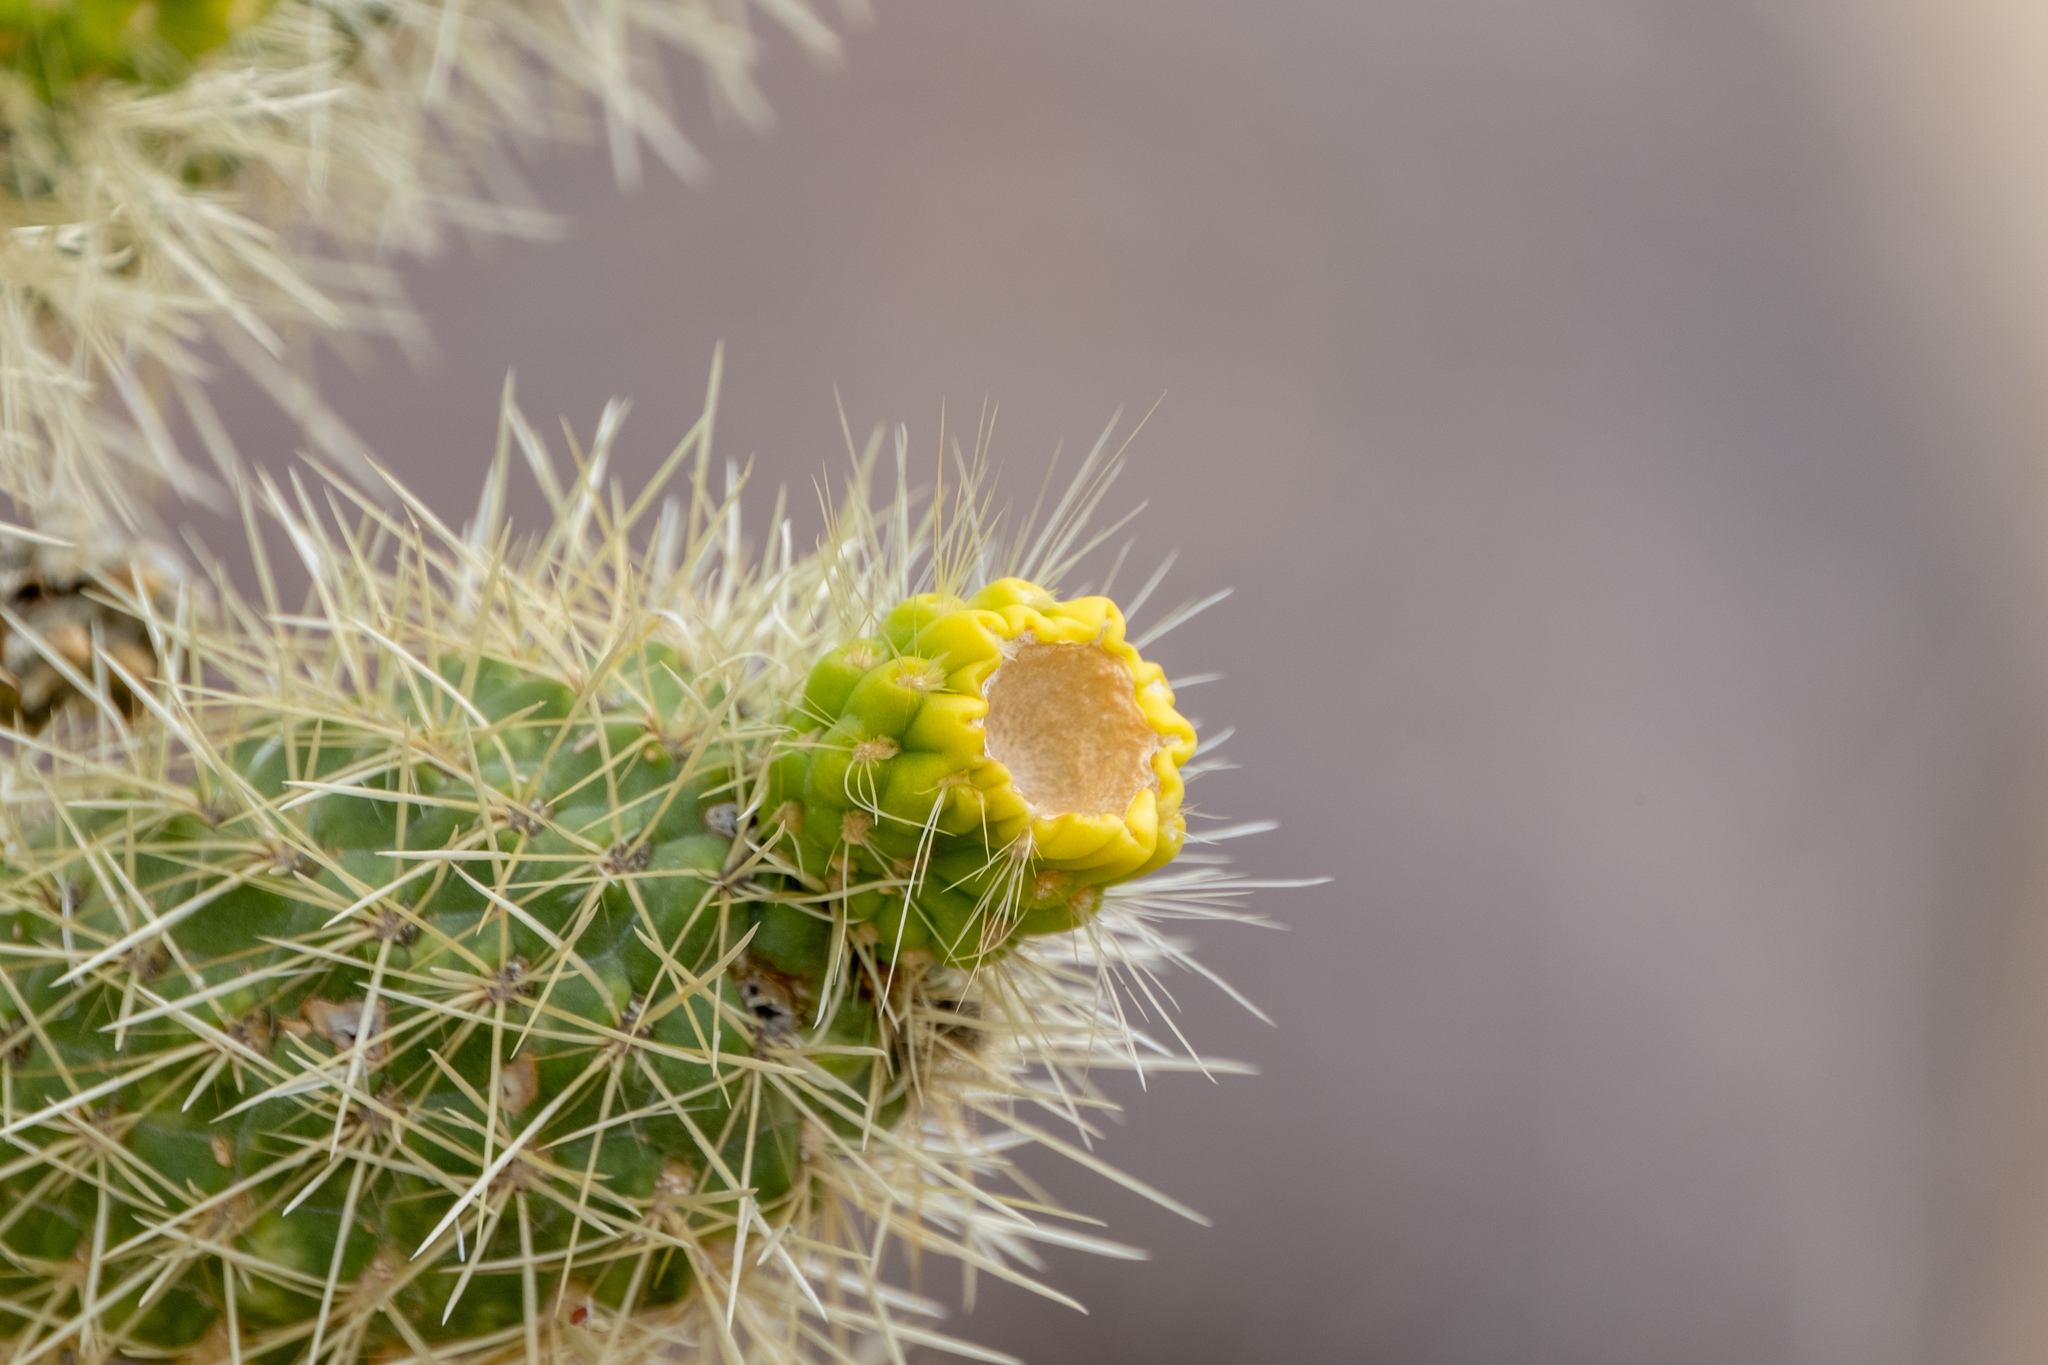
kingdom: Plantae
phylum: Tracheophyta
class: Magnoliopsida
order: Caryophyllales
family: Cactaceae
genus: Cylindropuntia
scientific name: Cylindropuntia fosbergii
